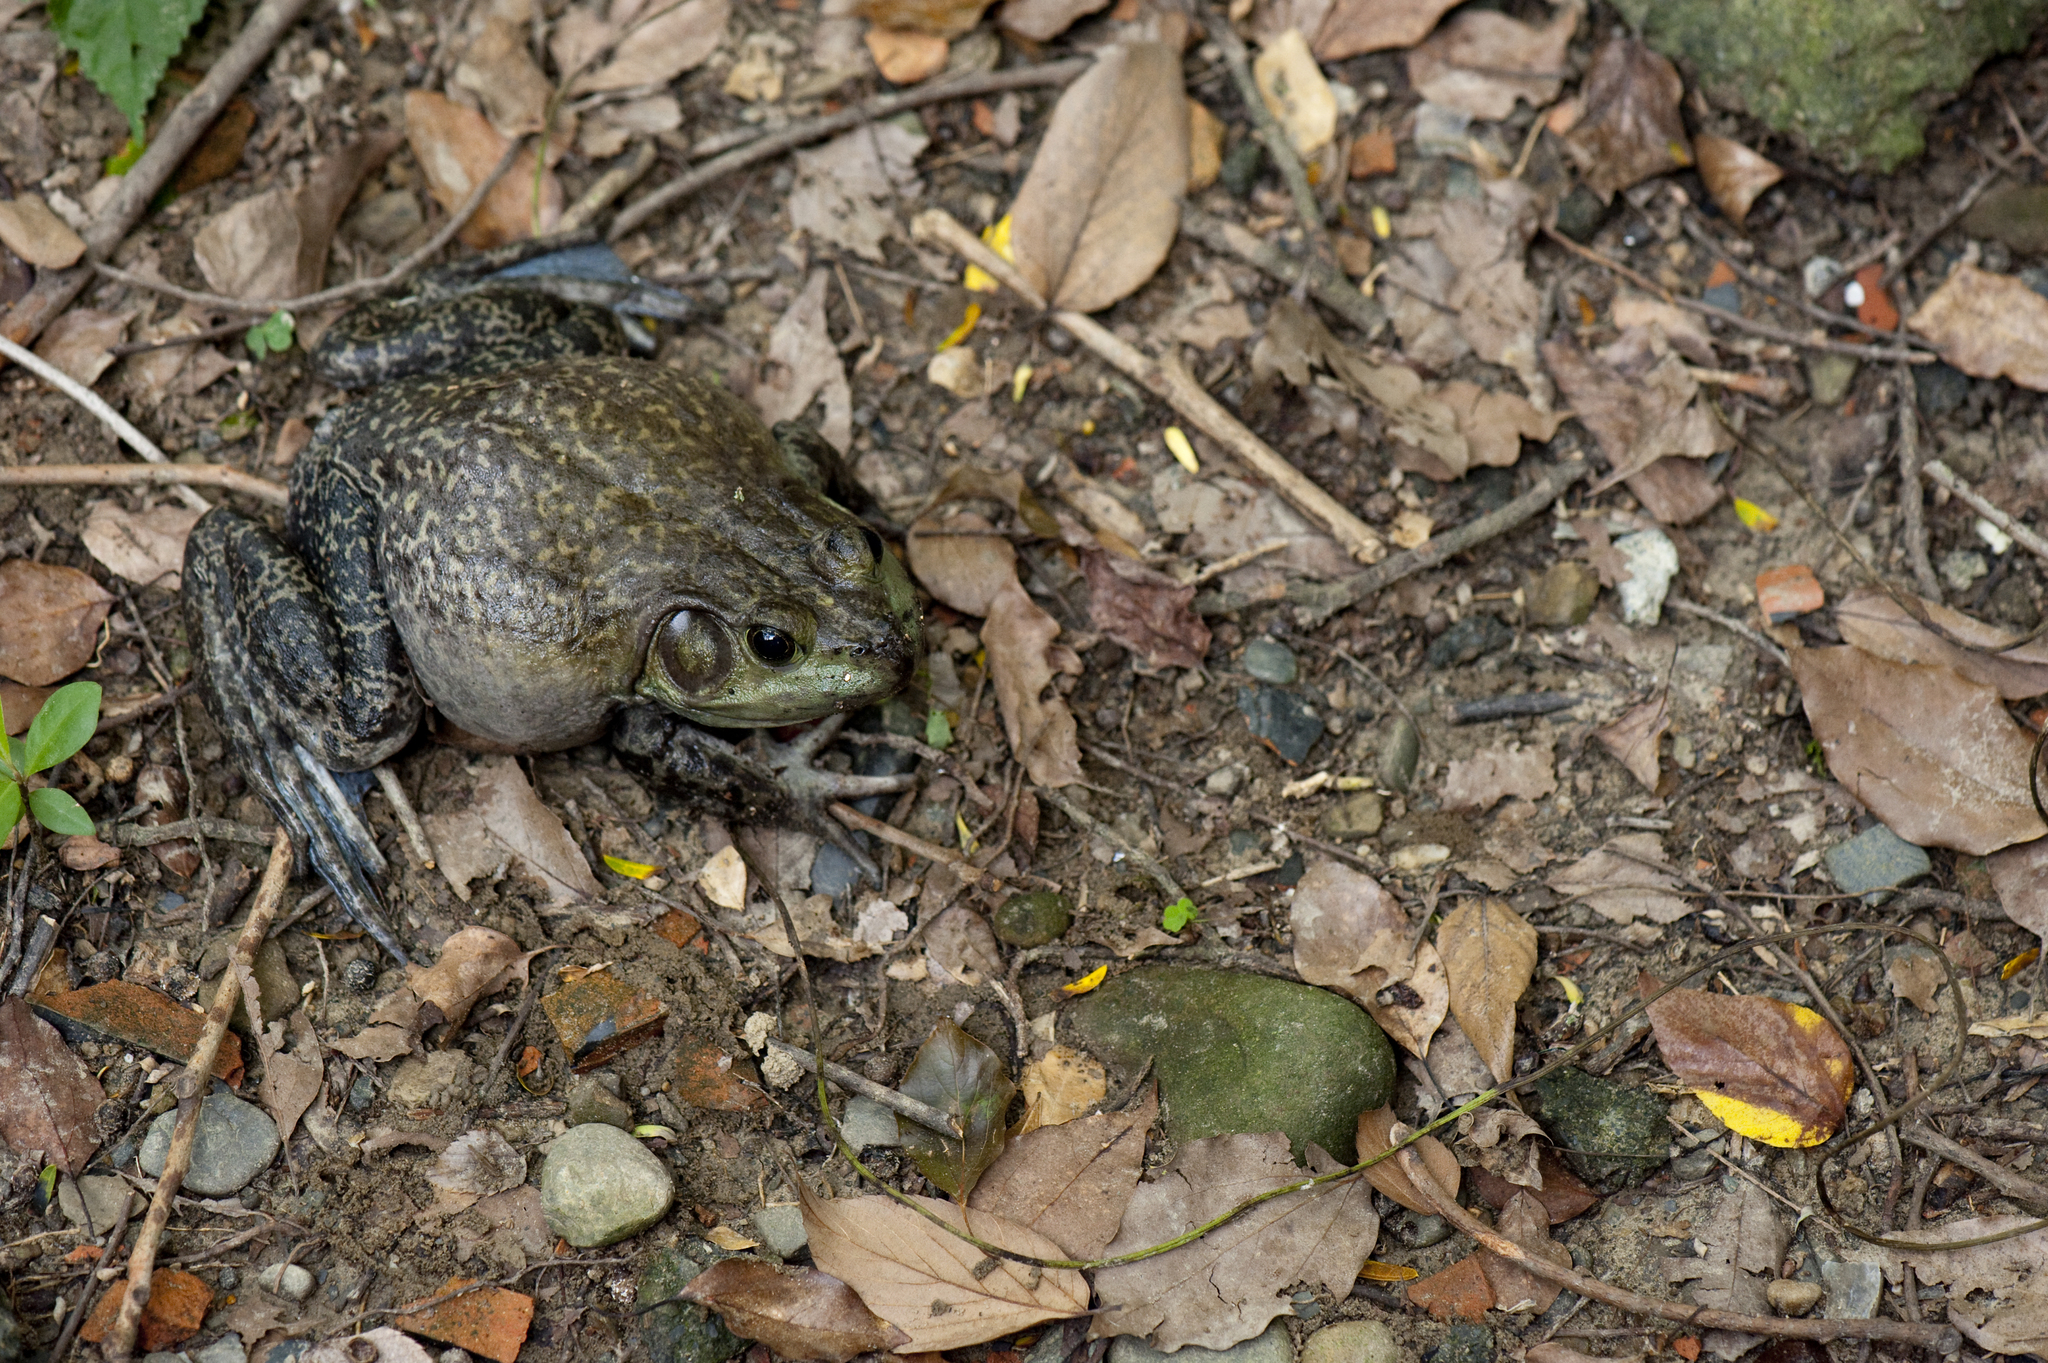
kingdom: Animalia
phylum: Chordata
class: Amphibia
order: Anura
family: Ranidae
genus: Lithobates
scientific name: Lithobates catesbeianus
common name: American bullfrog
